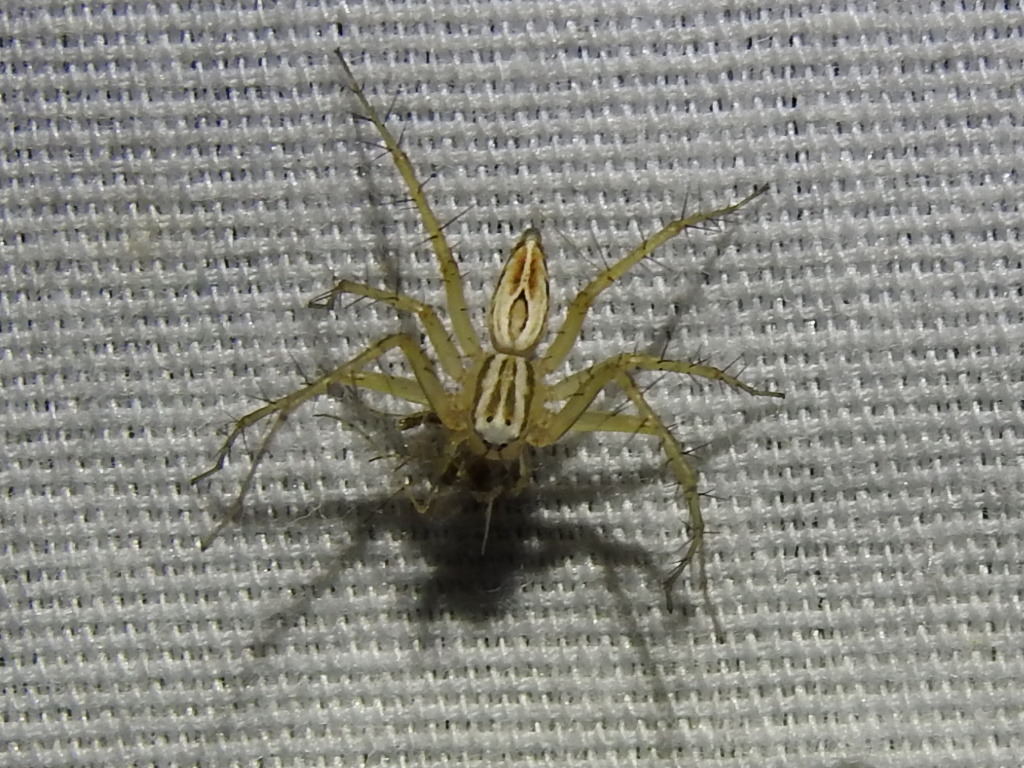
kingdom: Animalia
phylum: Arthropoda
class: Arachnida
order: Araneae
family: Oxyopidae
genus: Oxyopes
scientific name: Oxyopes salticus
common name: Lynx spiders
